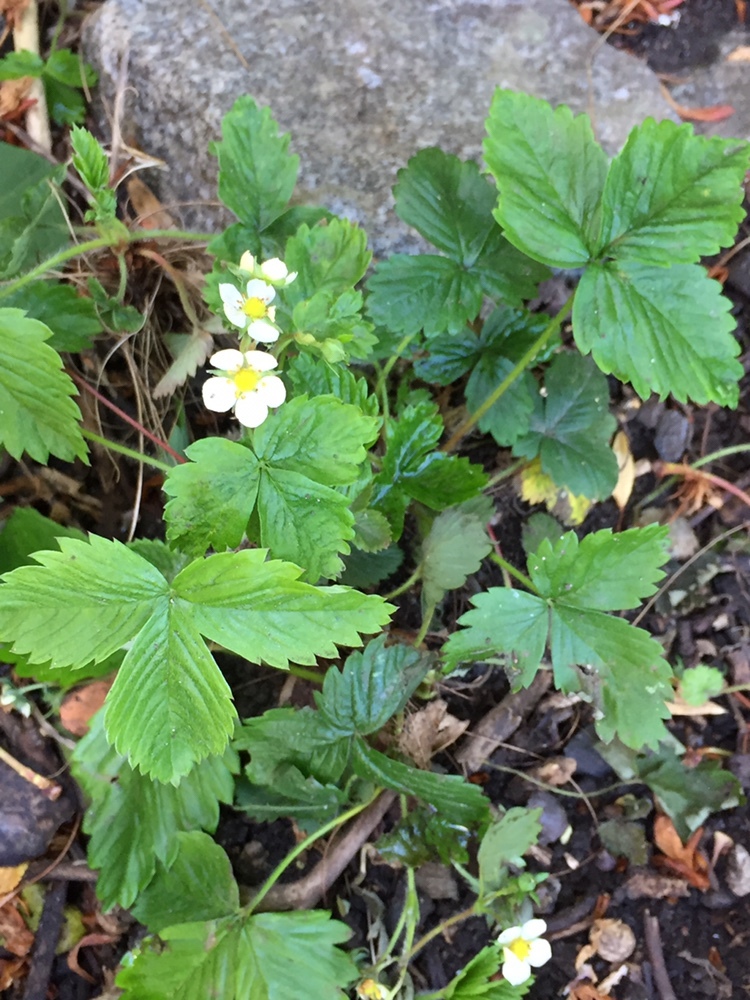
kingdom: Plantae
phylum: Tracheophyta
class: Magnoliopsida
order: Rosales
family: Rosaceae
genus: Fragaria
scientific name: Fragaria vesca
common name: Wild strawberry
